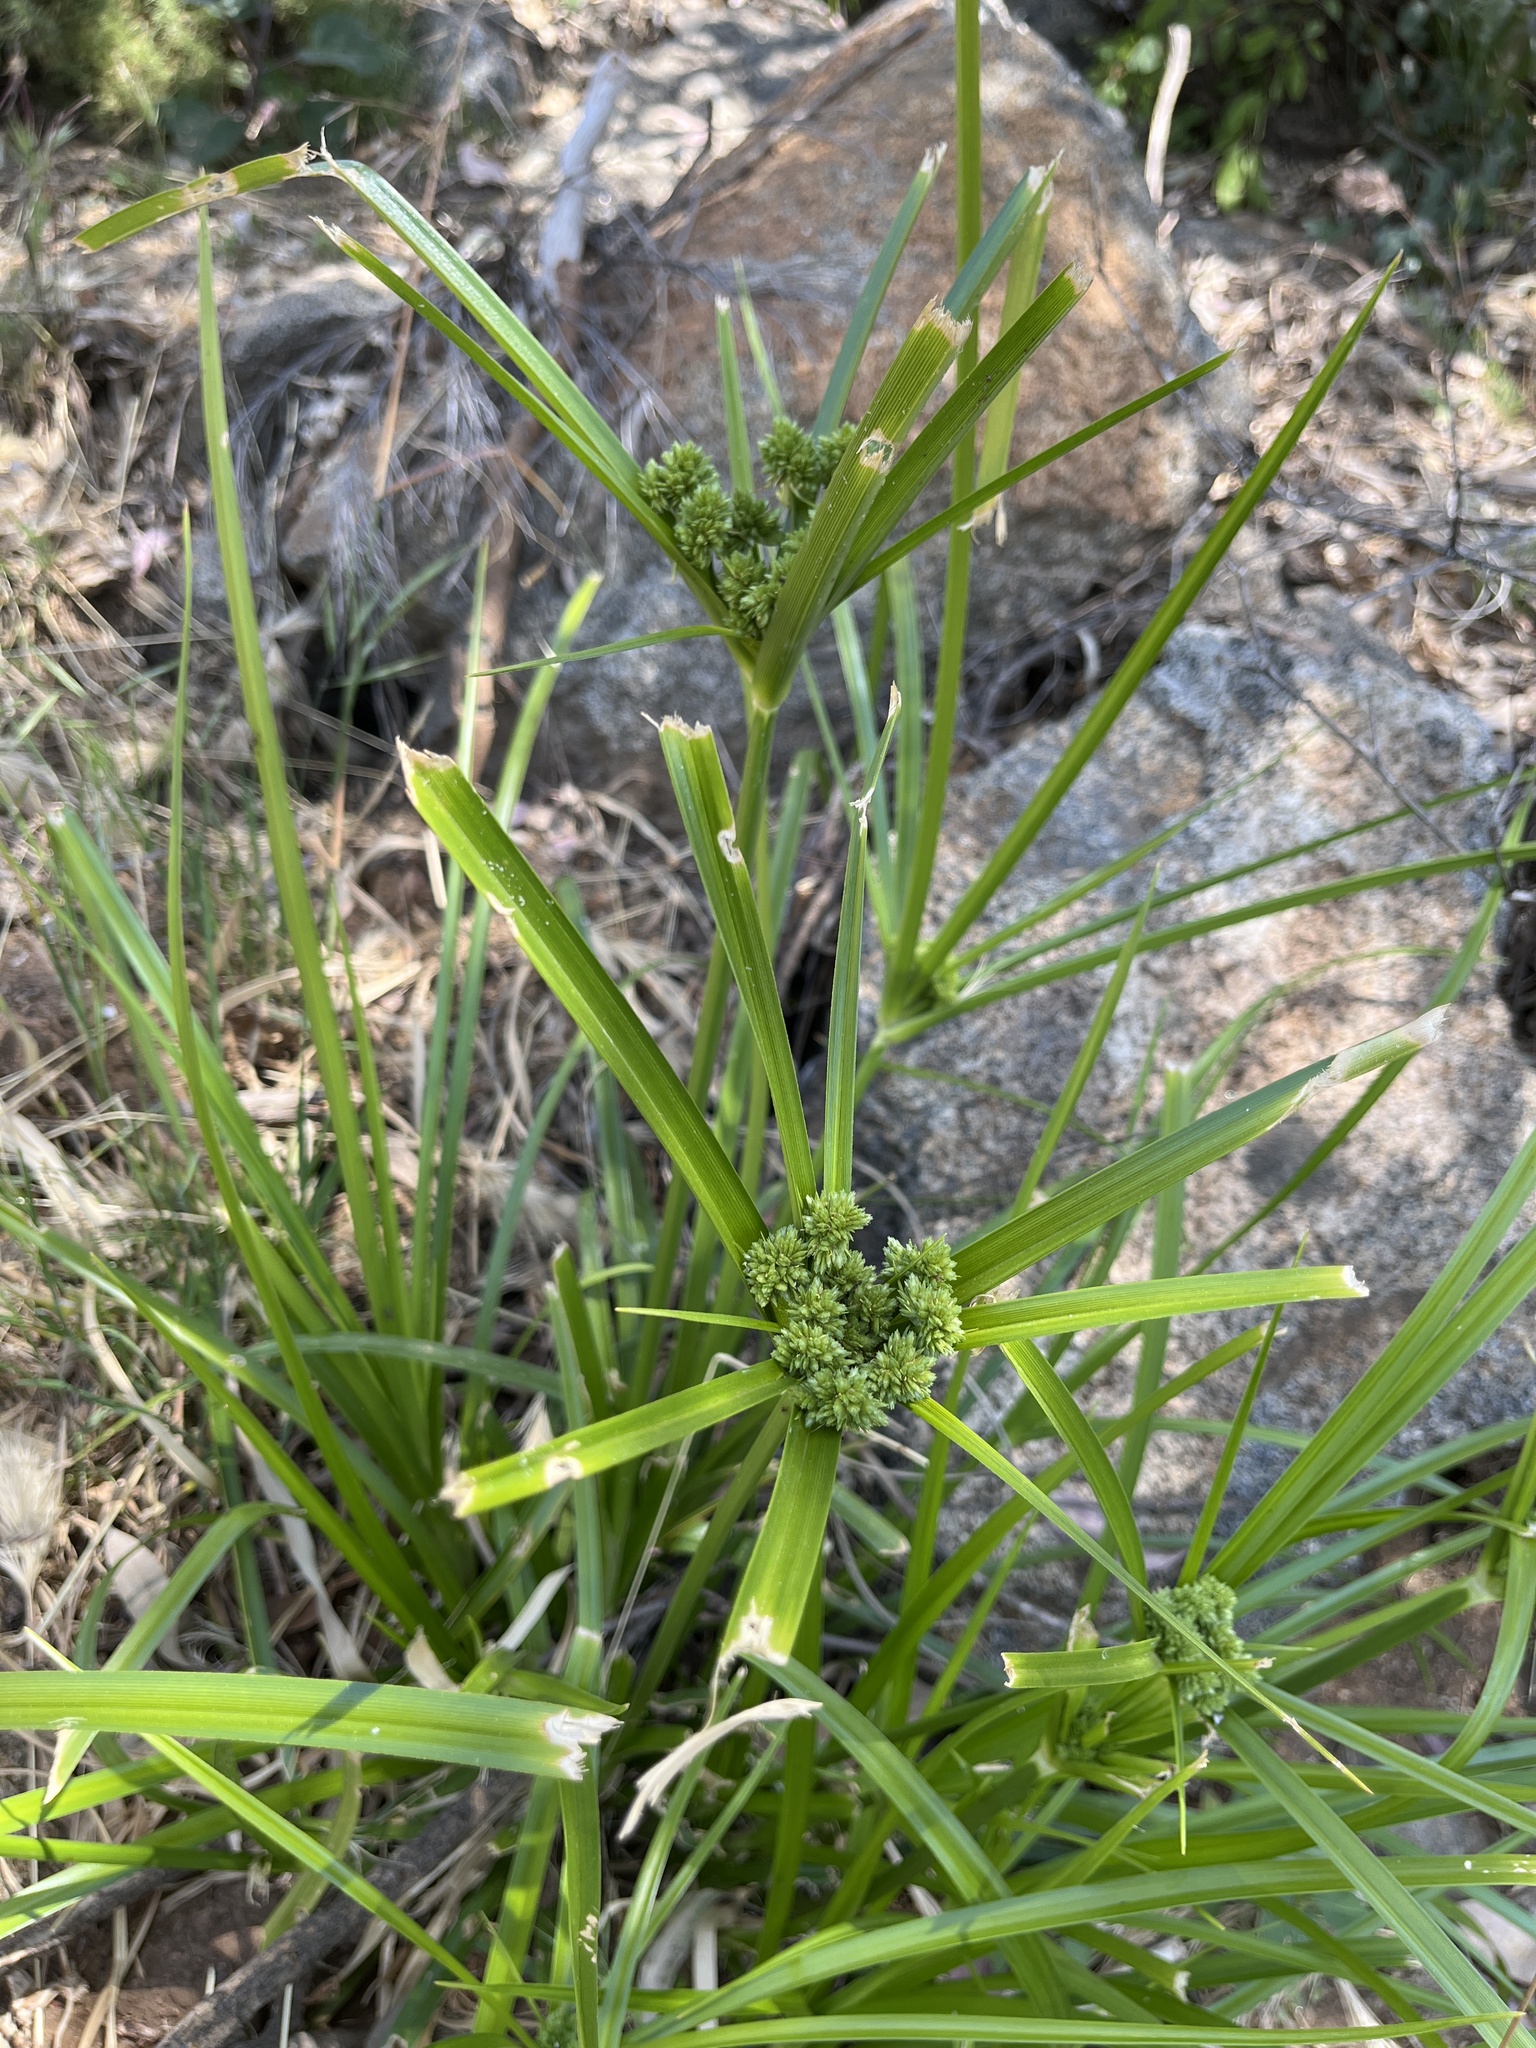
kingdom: Plantae
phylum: Tracheophyta
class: Liliopsida
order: Poales
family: Cyperaceae
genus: Cyperus
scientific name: Cyperus eragrostis
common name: Tall flatsedge
